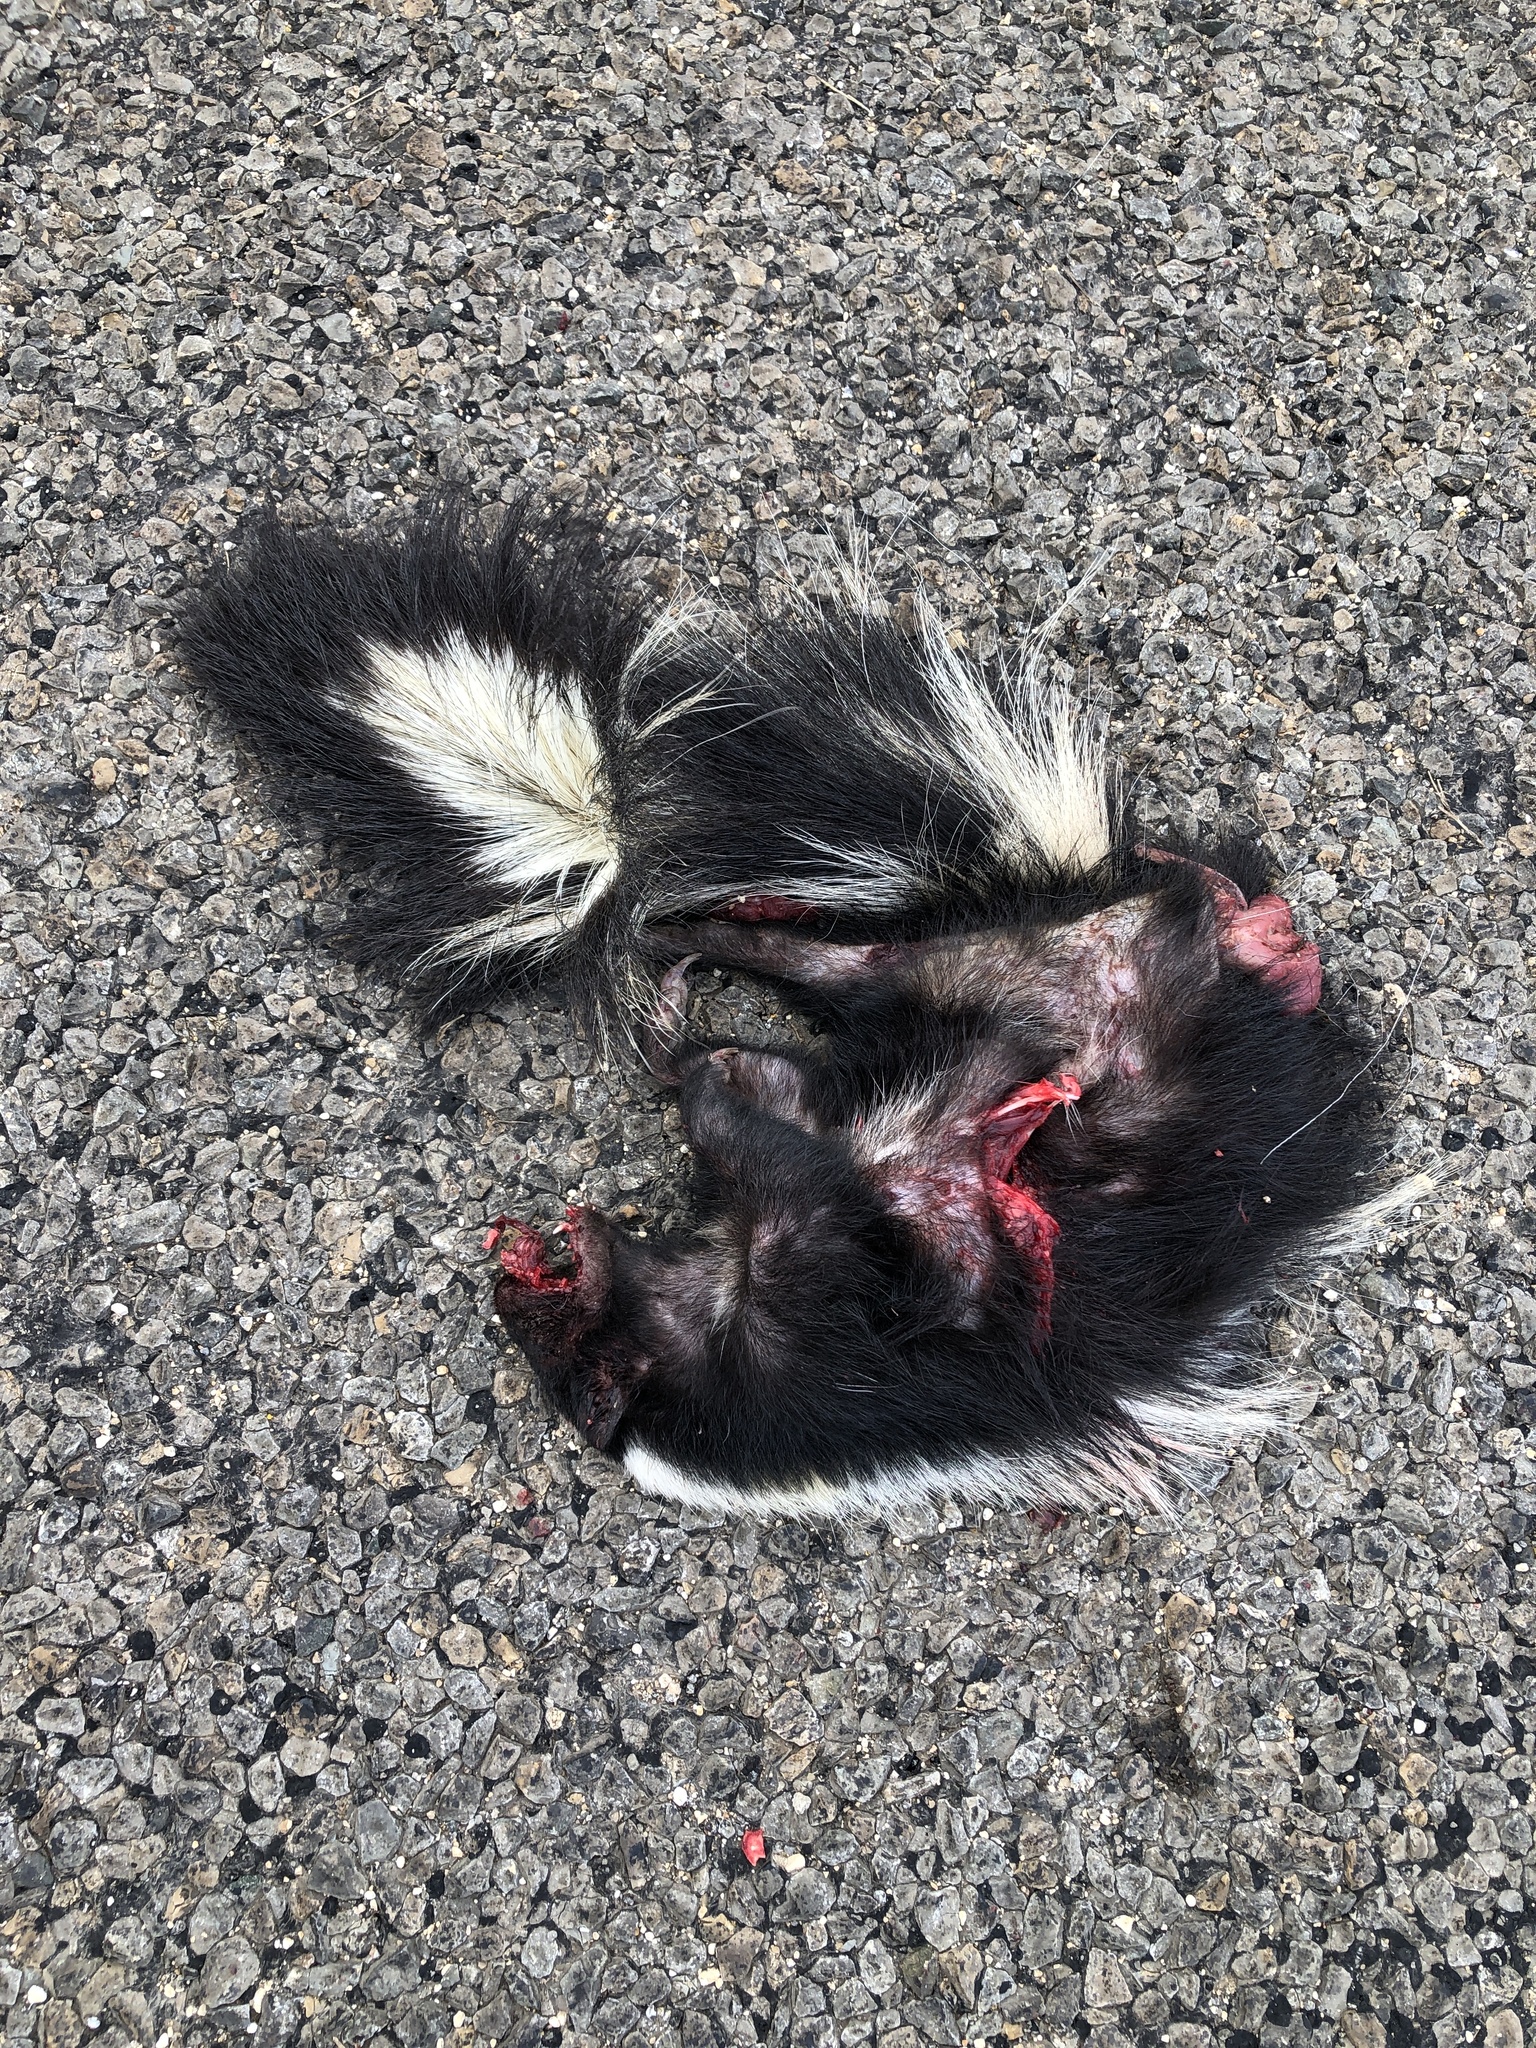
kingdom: Animalia
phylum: Chordata
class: Mammalia
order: Carnivora
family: Mephitidae
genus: Mephitis
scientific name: Mephitis mephitis
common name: Striped skunk
